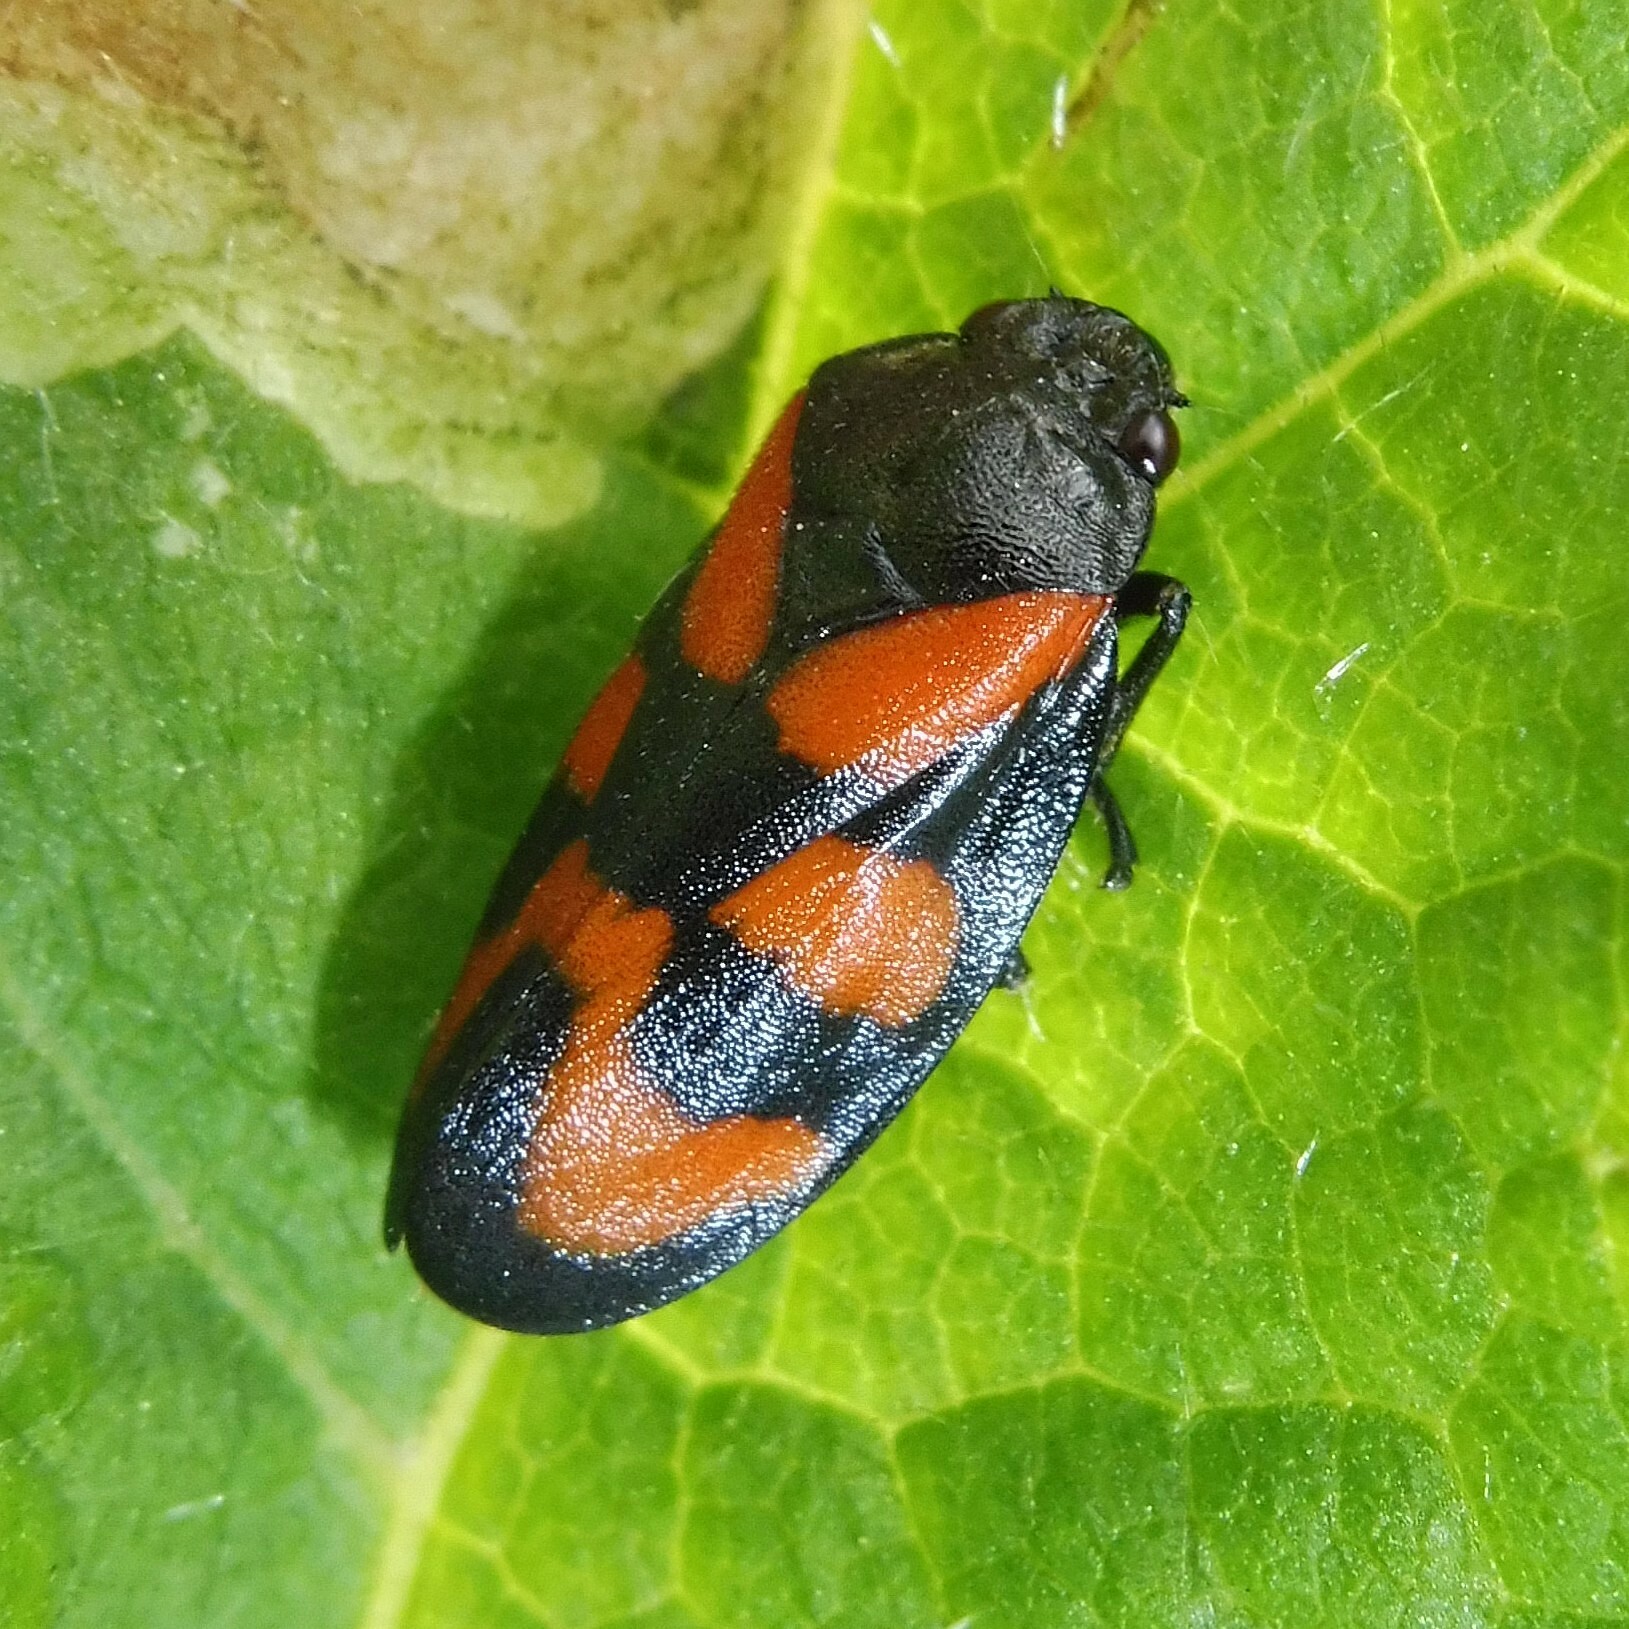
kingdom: Animalia
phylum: Arthropoda
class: Insecta
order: Hemiptera
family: Cercopidae
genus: Cercopis
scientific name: Cercopis vulnerata
